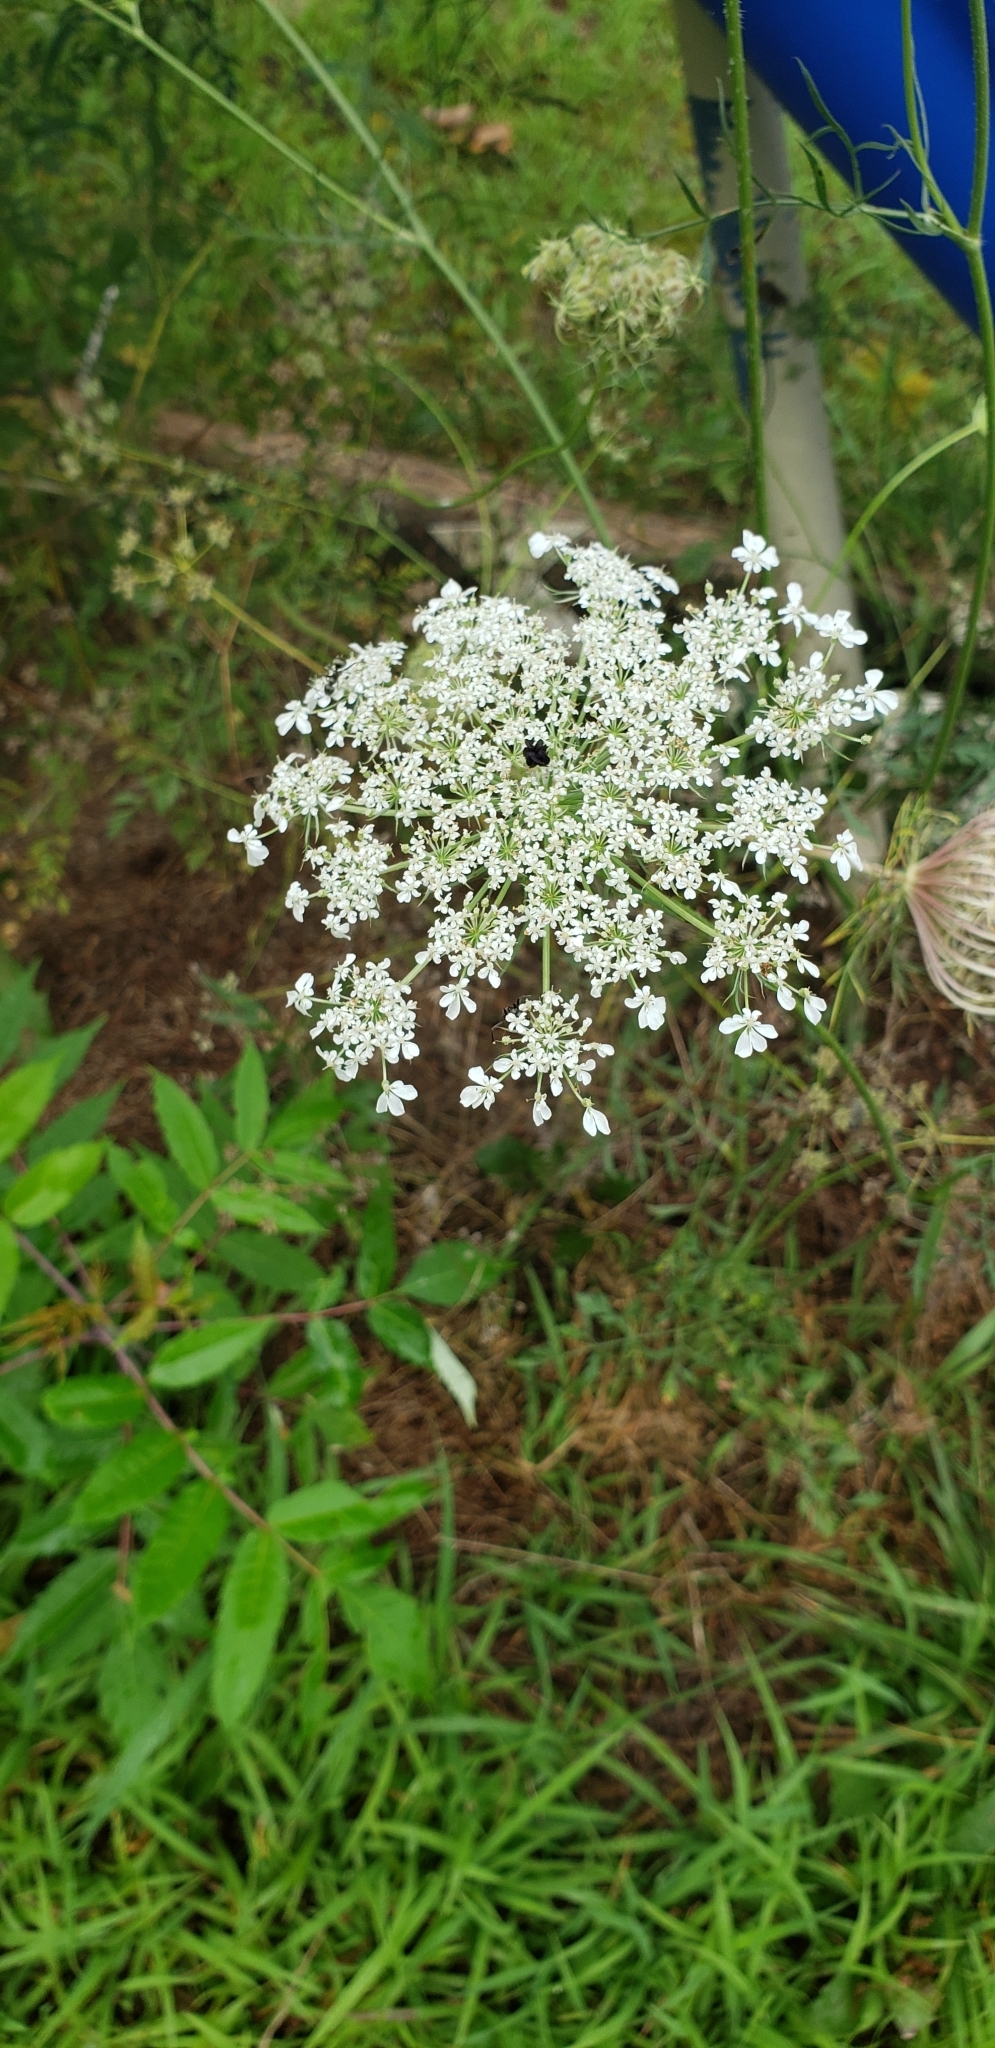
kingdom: Plantae
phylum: Tracheophyta
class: Magnoliopsida
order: Apiales
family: Apiaceae
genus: Daucus
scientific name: Daucus carota
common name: Wild carrot
